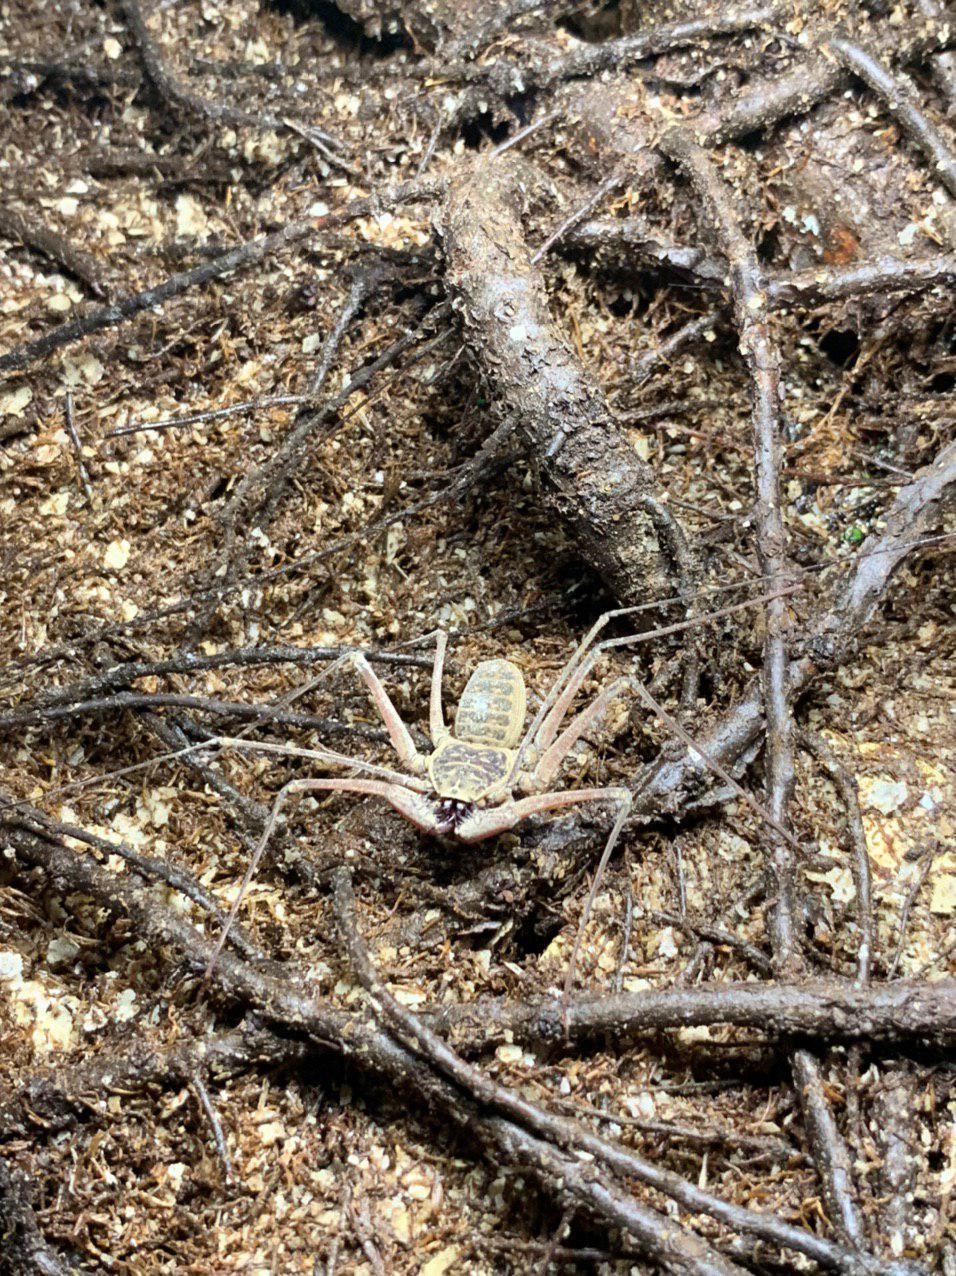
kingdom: Animalia
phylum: Arthropoda
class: Arachnida
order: Amblypygi
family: Phrynidae
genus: Paraphrynus
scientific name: Paraphrynus raptator
